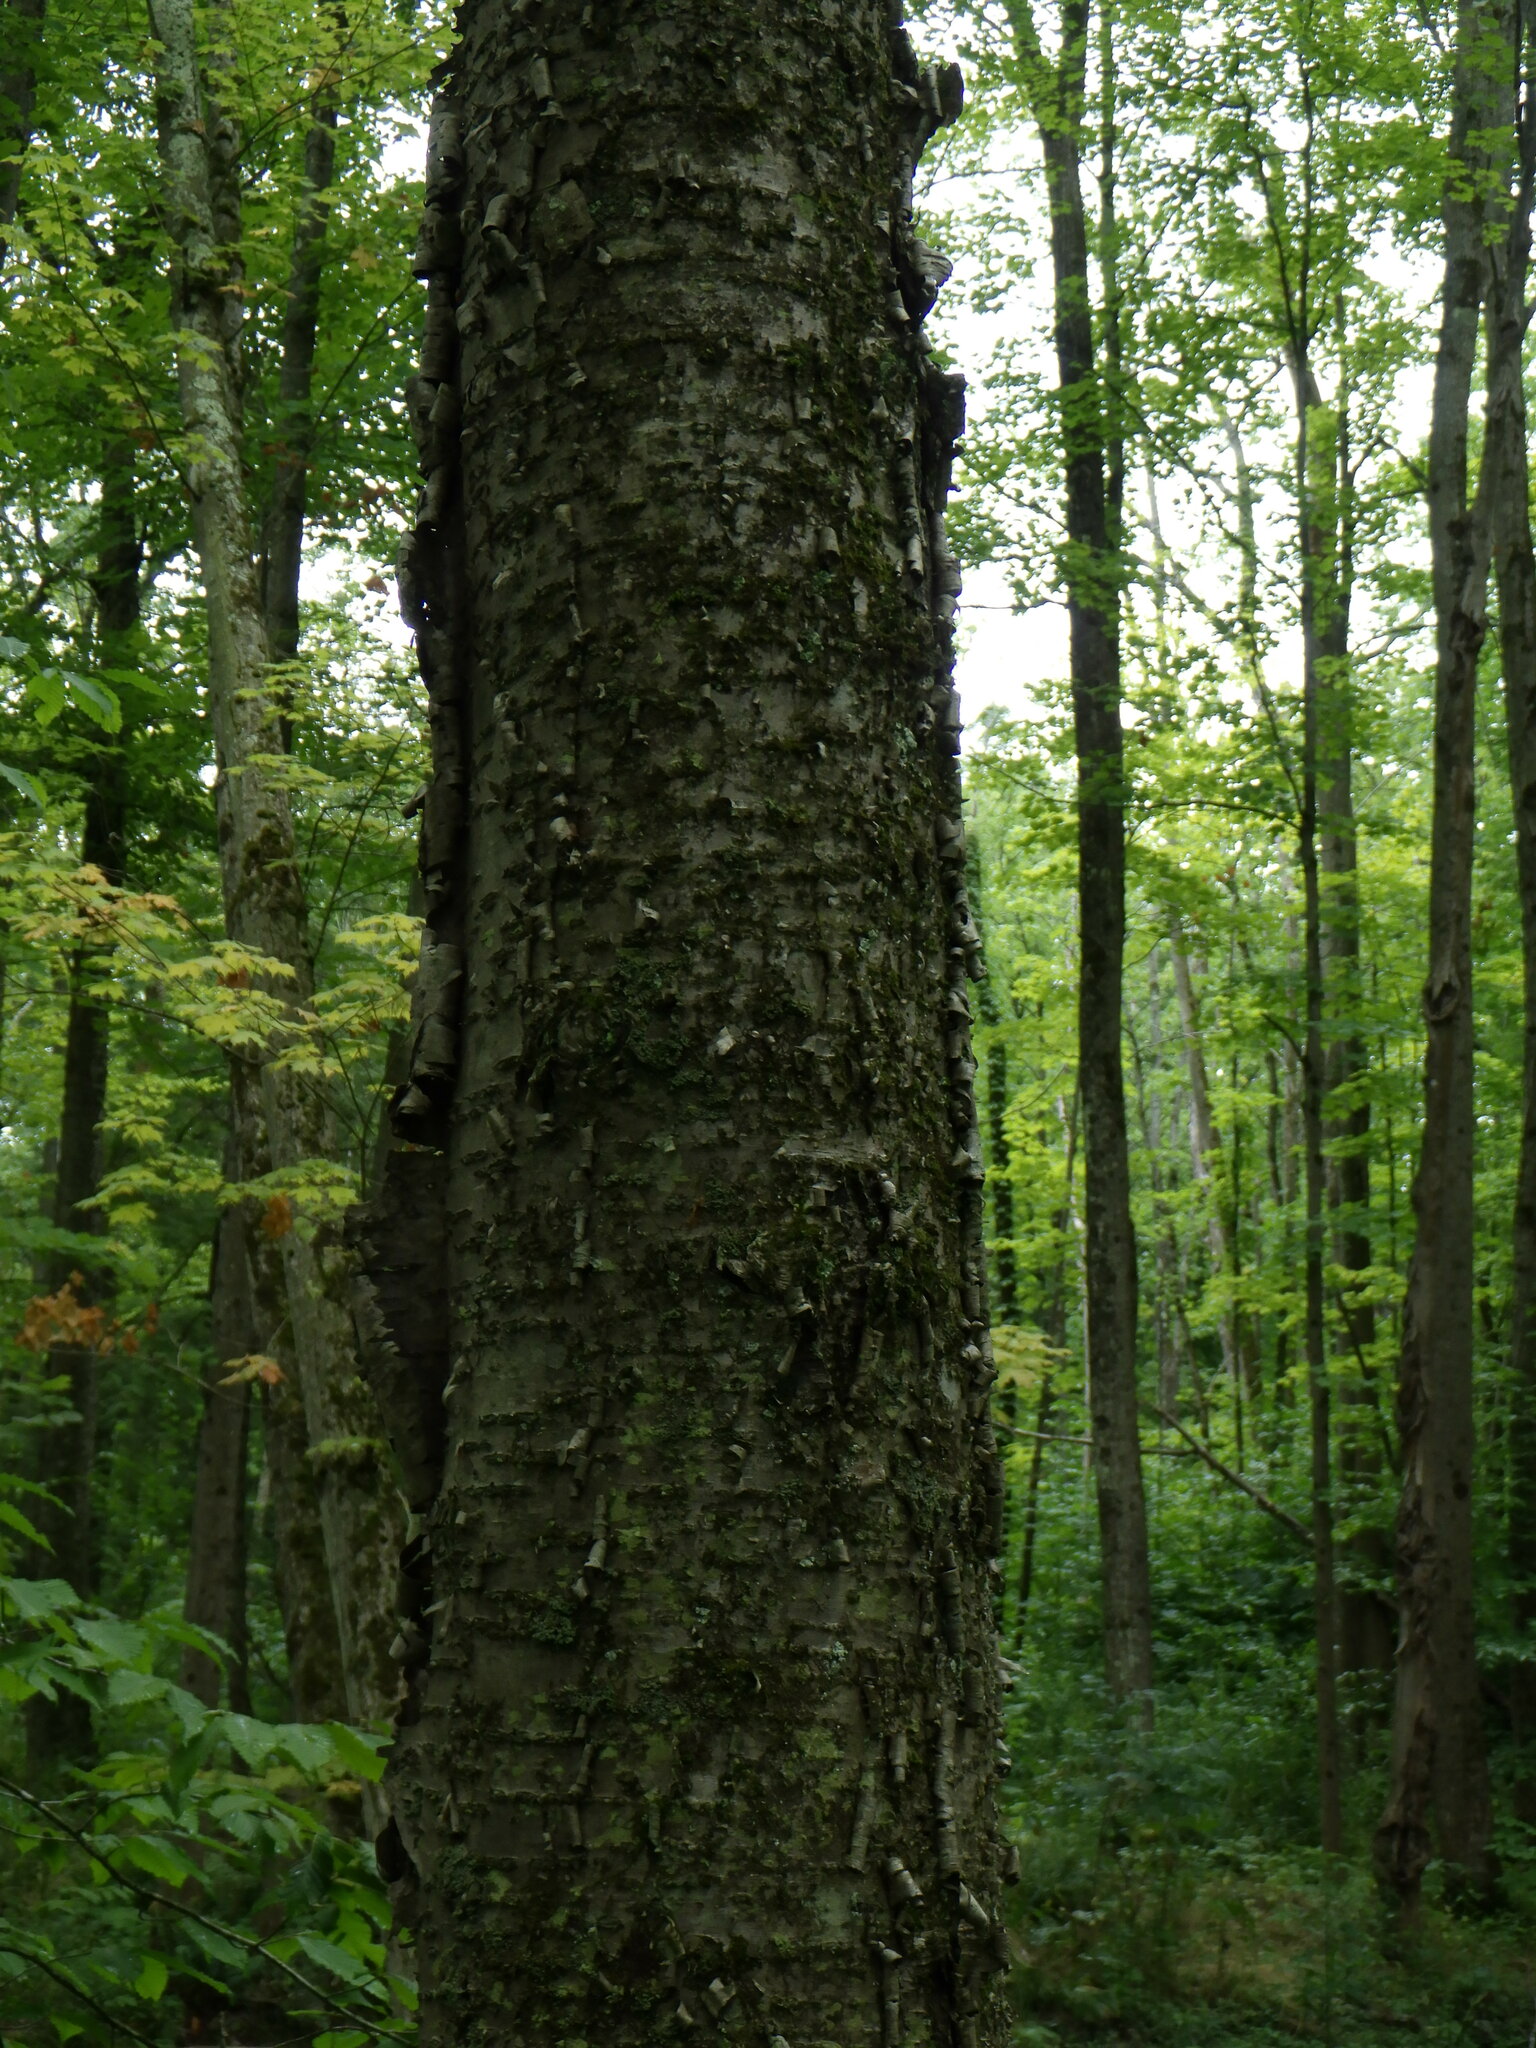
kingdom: Plantae
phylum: Tracheophyta
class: Magnoliopsida
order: Fagales
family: Betulaceae
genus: Betula
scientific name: Betula alleghaniensis
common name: Yellow birch
